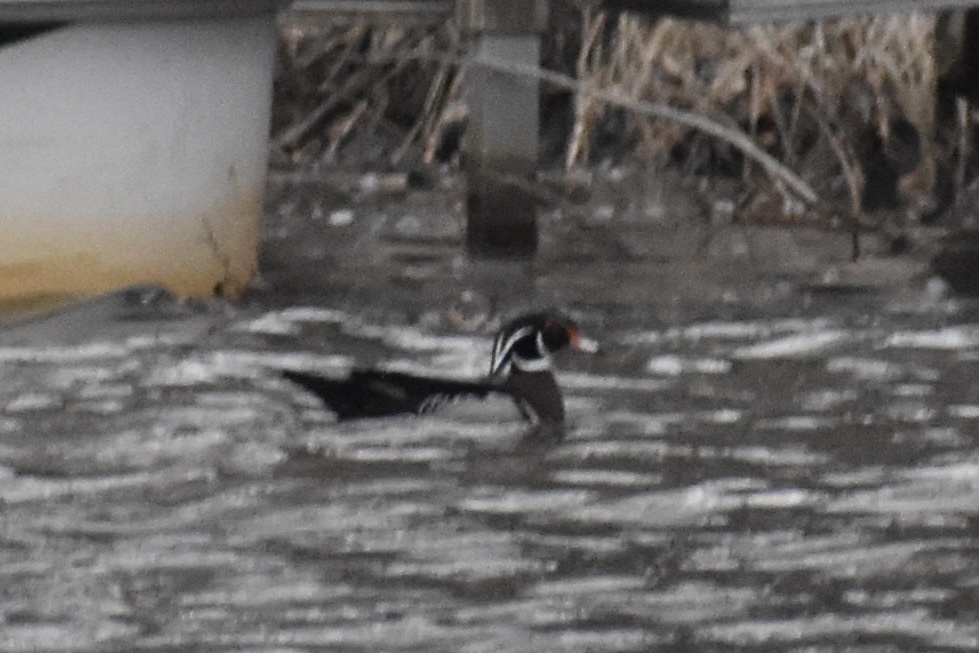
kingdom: Animalia
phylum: Chordata
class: Aves
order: Anseriformes
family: Anatidae
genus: Aix
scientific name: Aix sponsa
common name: Wood duck
